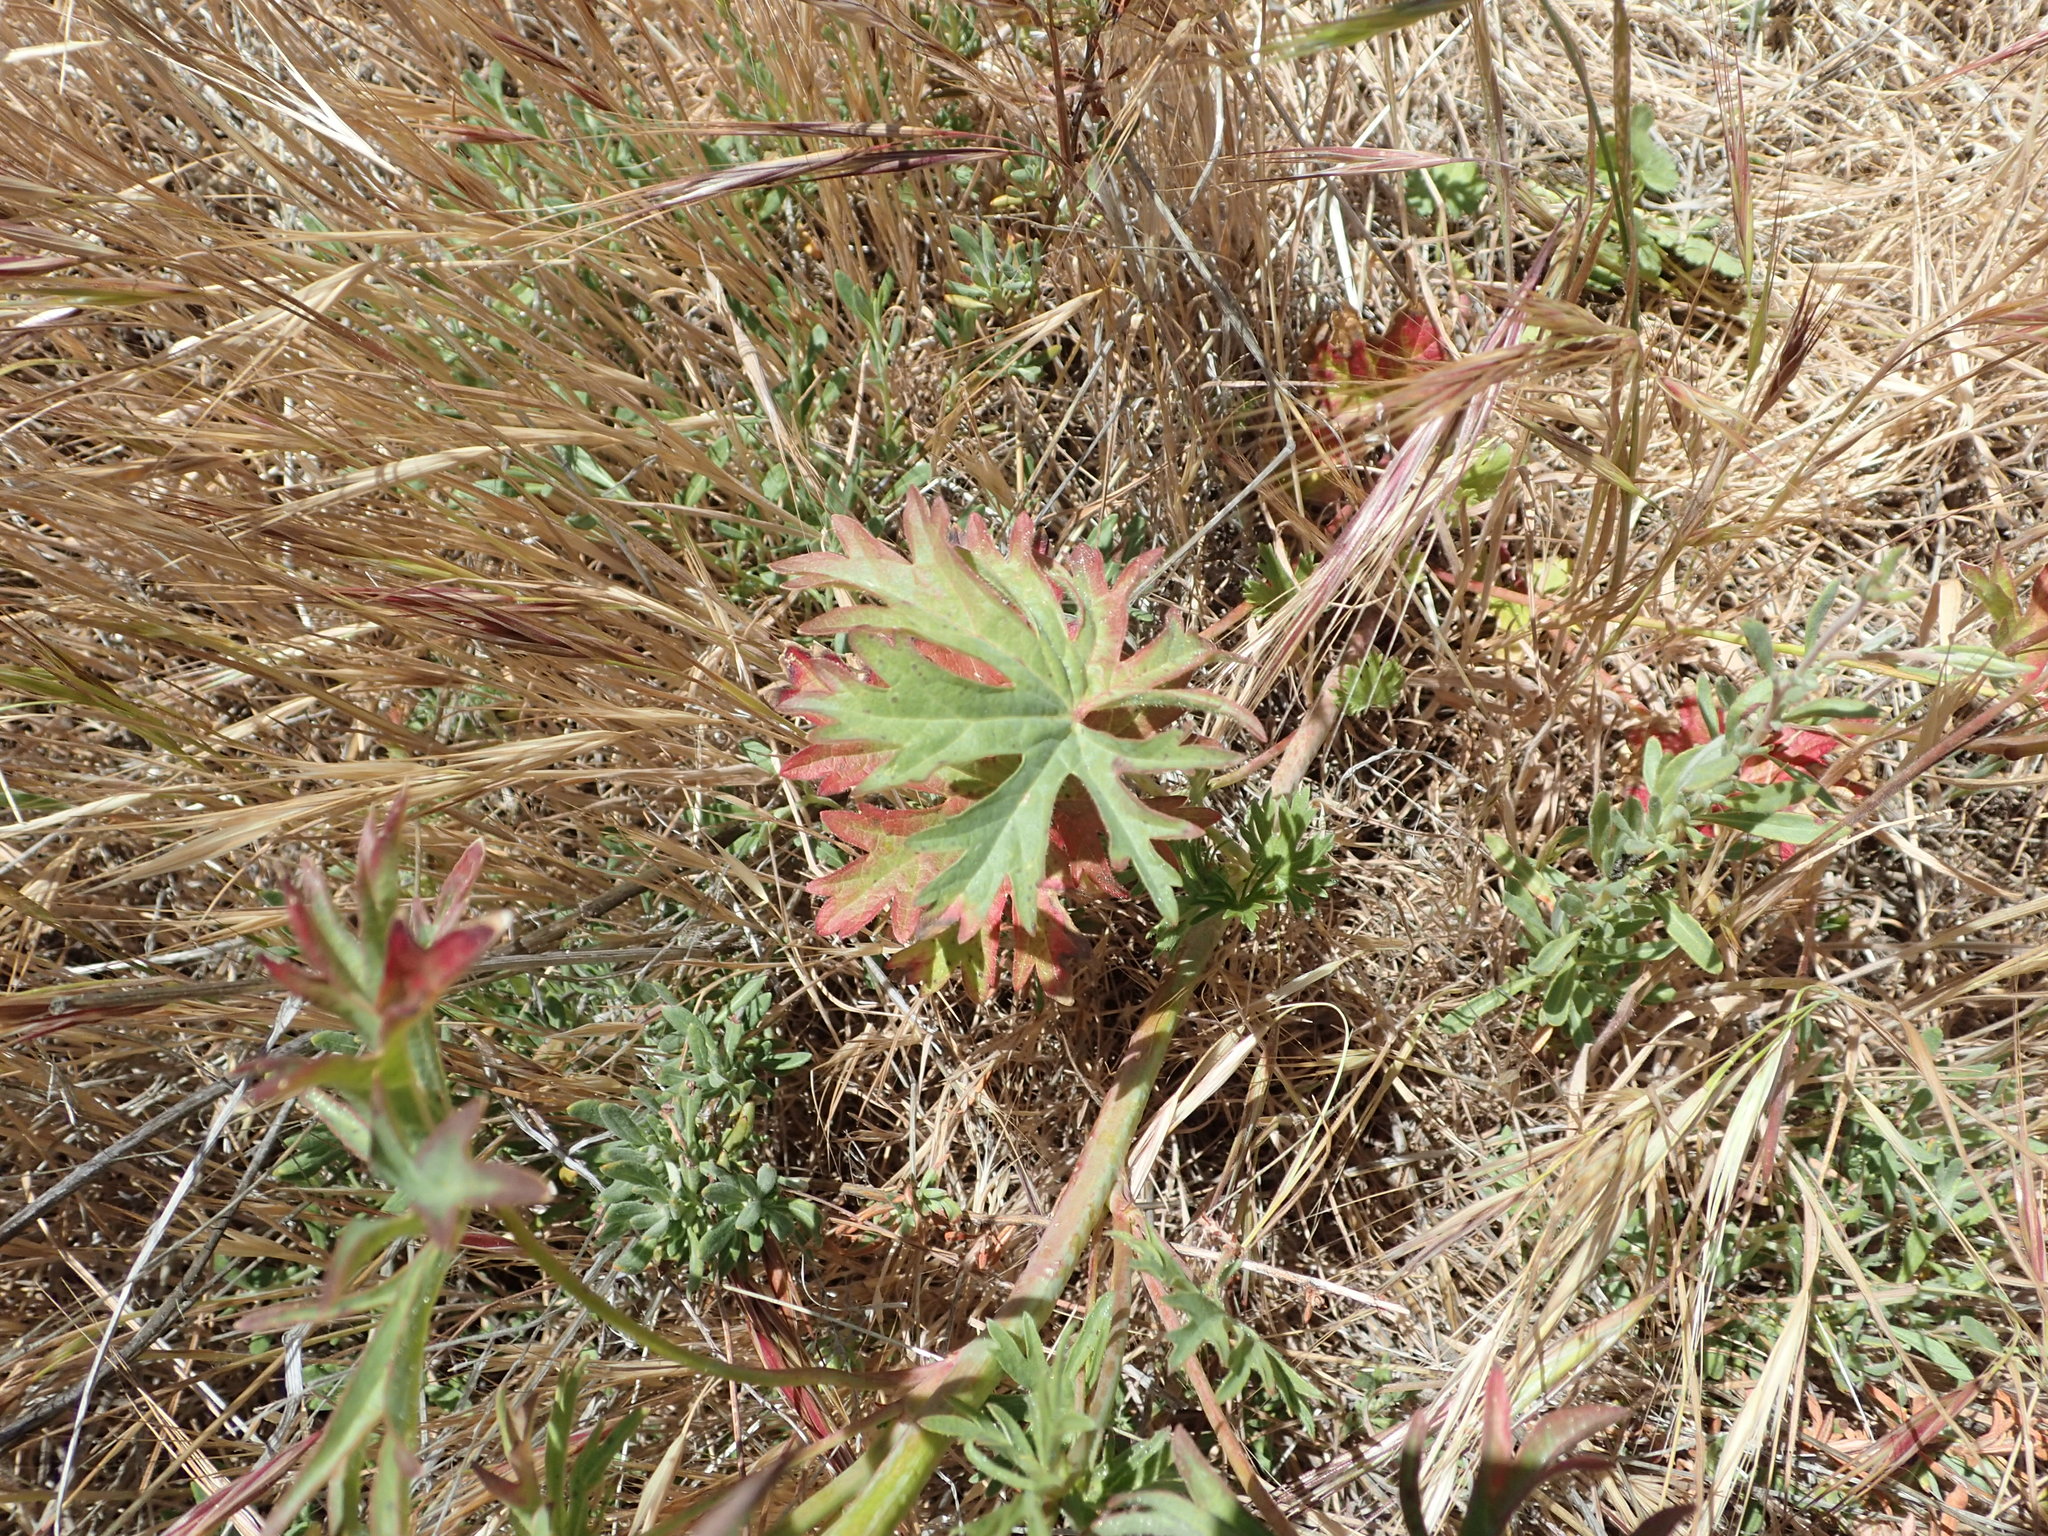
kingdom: Plantae
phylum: Tracheophyta
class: Magnoliopsida
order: Malvales
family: Malvaceae
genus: Sidalcea
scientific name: Sidalcea sparsifolia
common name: Southern checkerbloom
